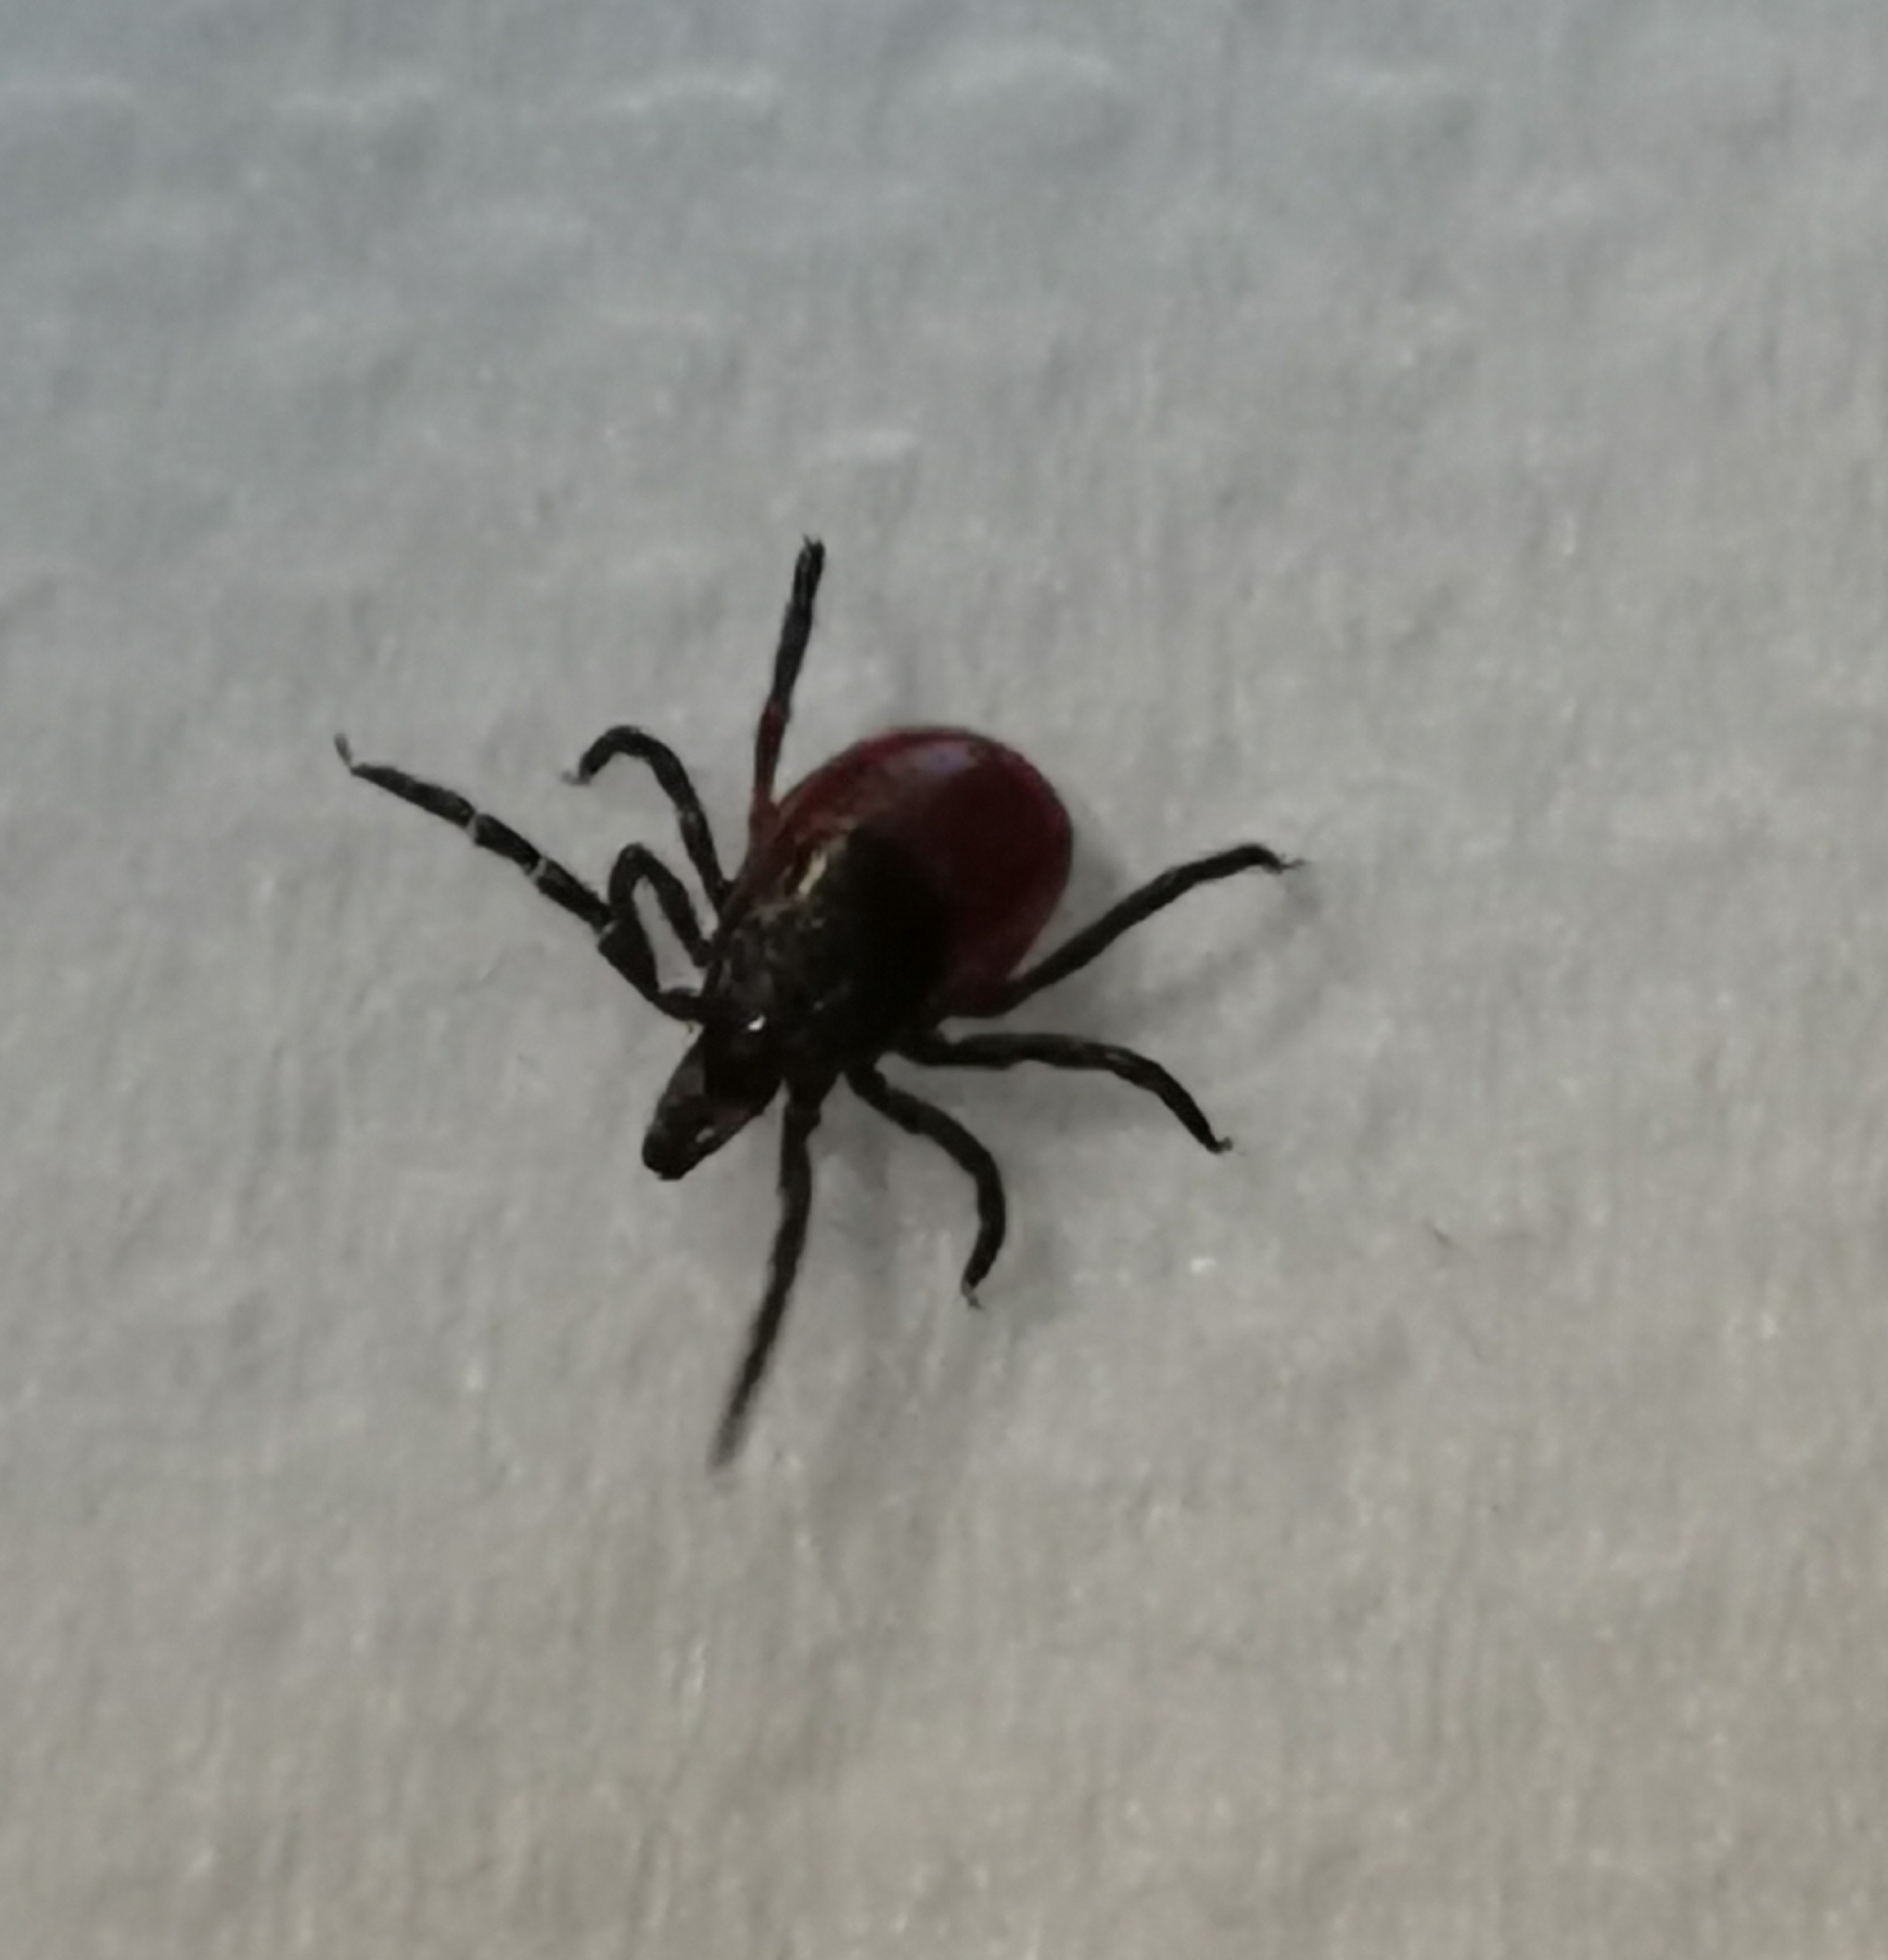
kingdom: Animalia
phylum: Arthropoda
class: Arachnida
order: Ixodida
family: Ixodidae
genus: Ixodes
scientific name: Ixodes ricinus
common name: Castor bean tick
